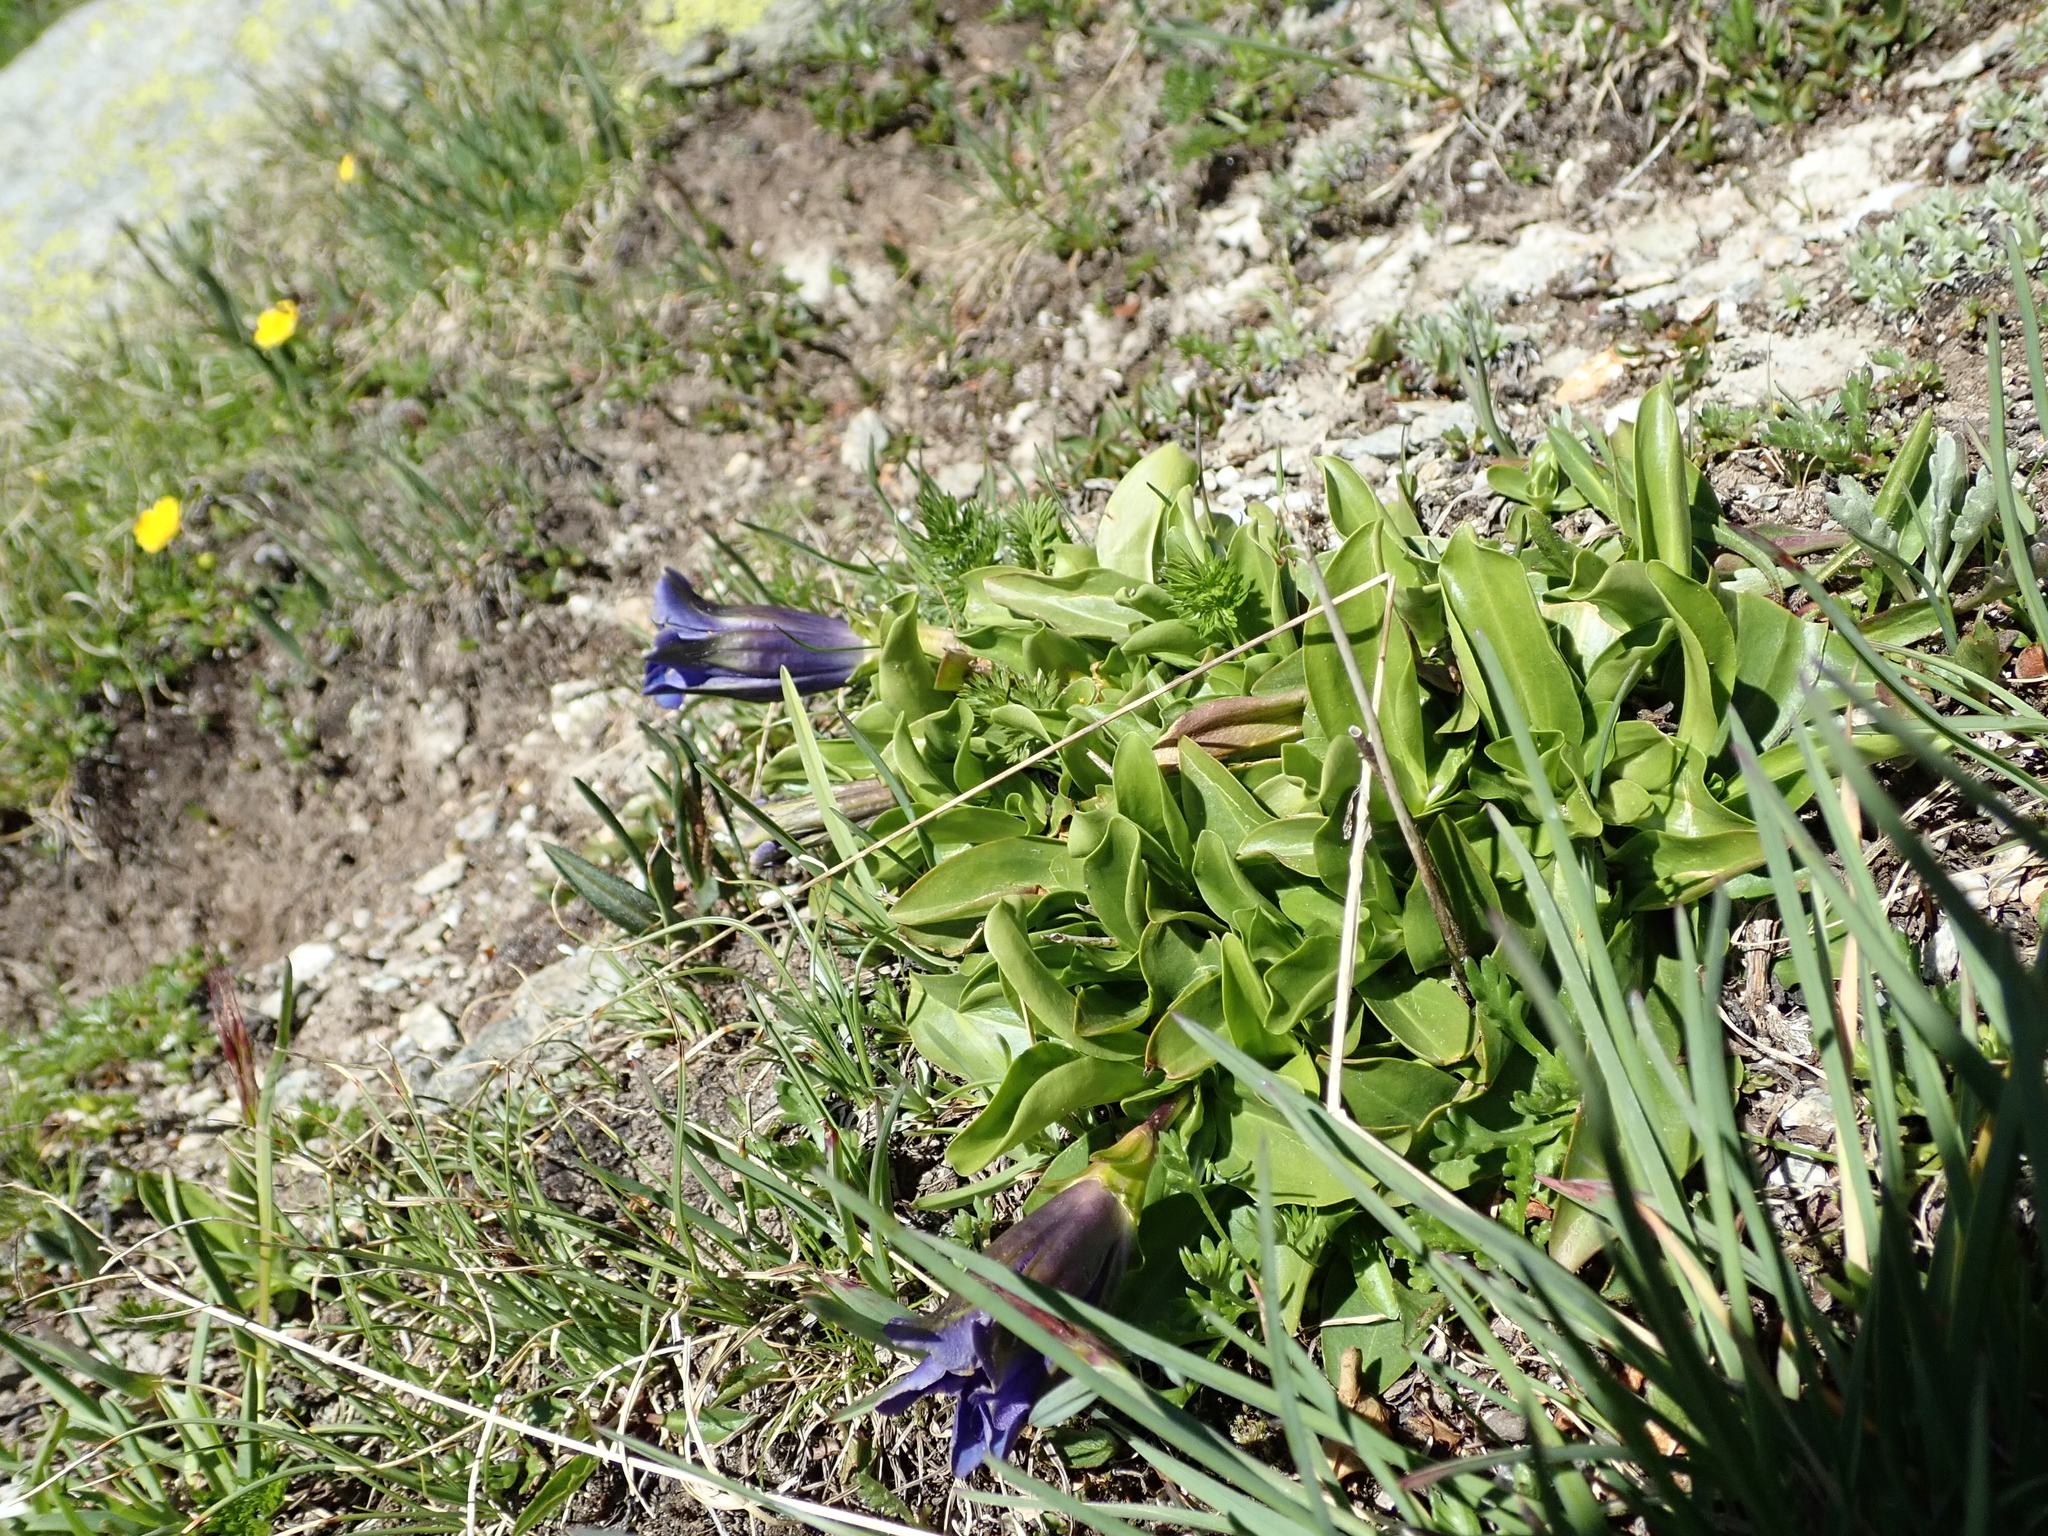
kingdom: Plantae
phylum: Tracheophyta
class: Magnoliopsida
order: Gentianales
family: Gentianaceae
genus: Gentiana
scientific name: Gentiana acaulis
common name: Trumpet gentian
